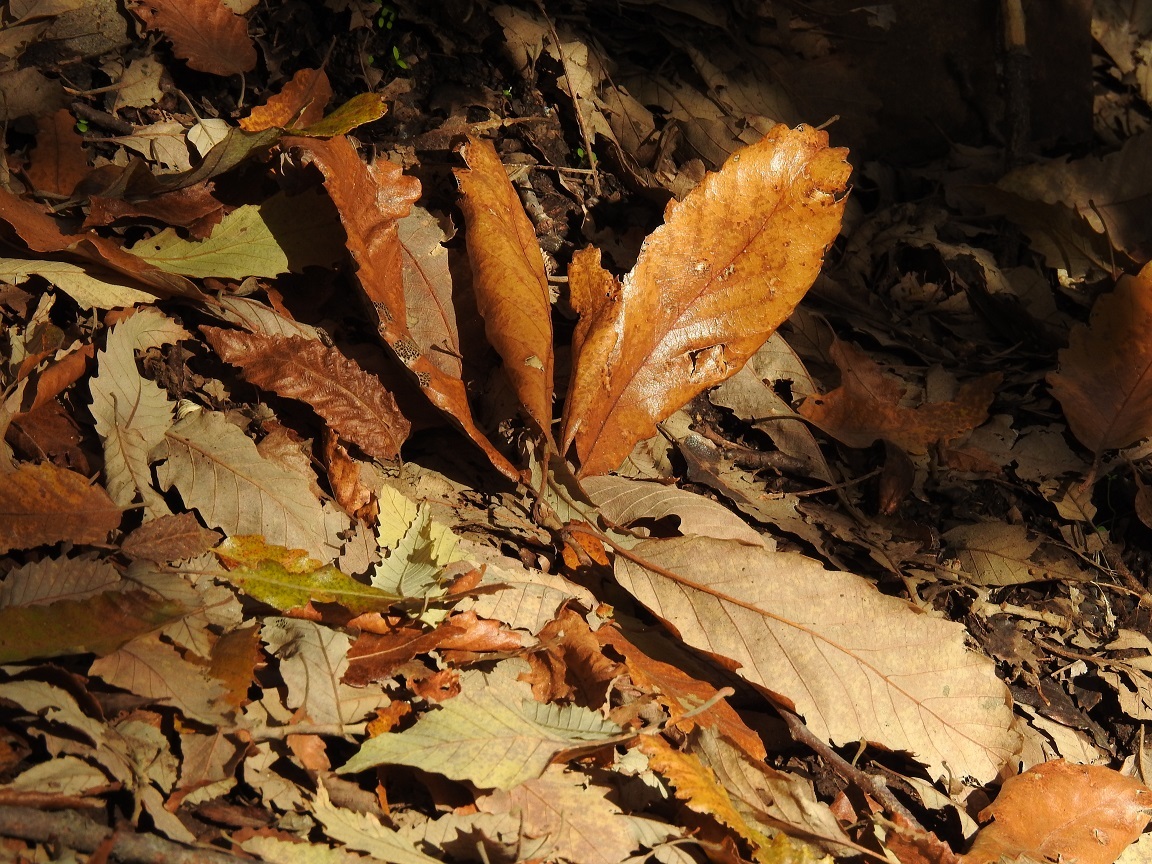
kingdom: Plantae
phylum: Tracheophyta
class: Magnoliopsida
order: Fagales
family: Fagaceae
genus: Quercus
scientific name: Quercus afares
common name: African oak
